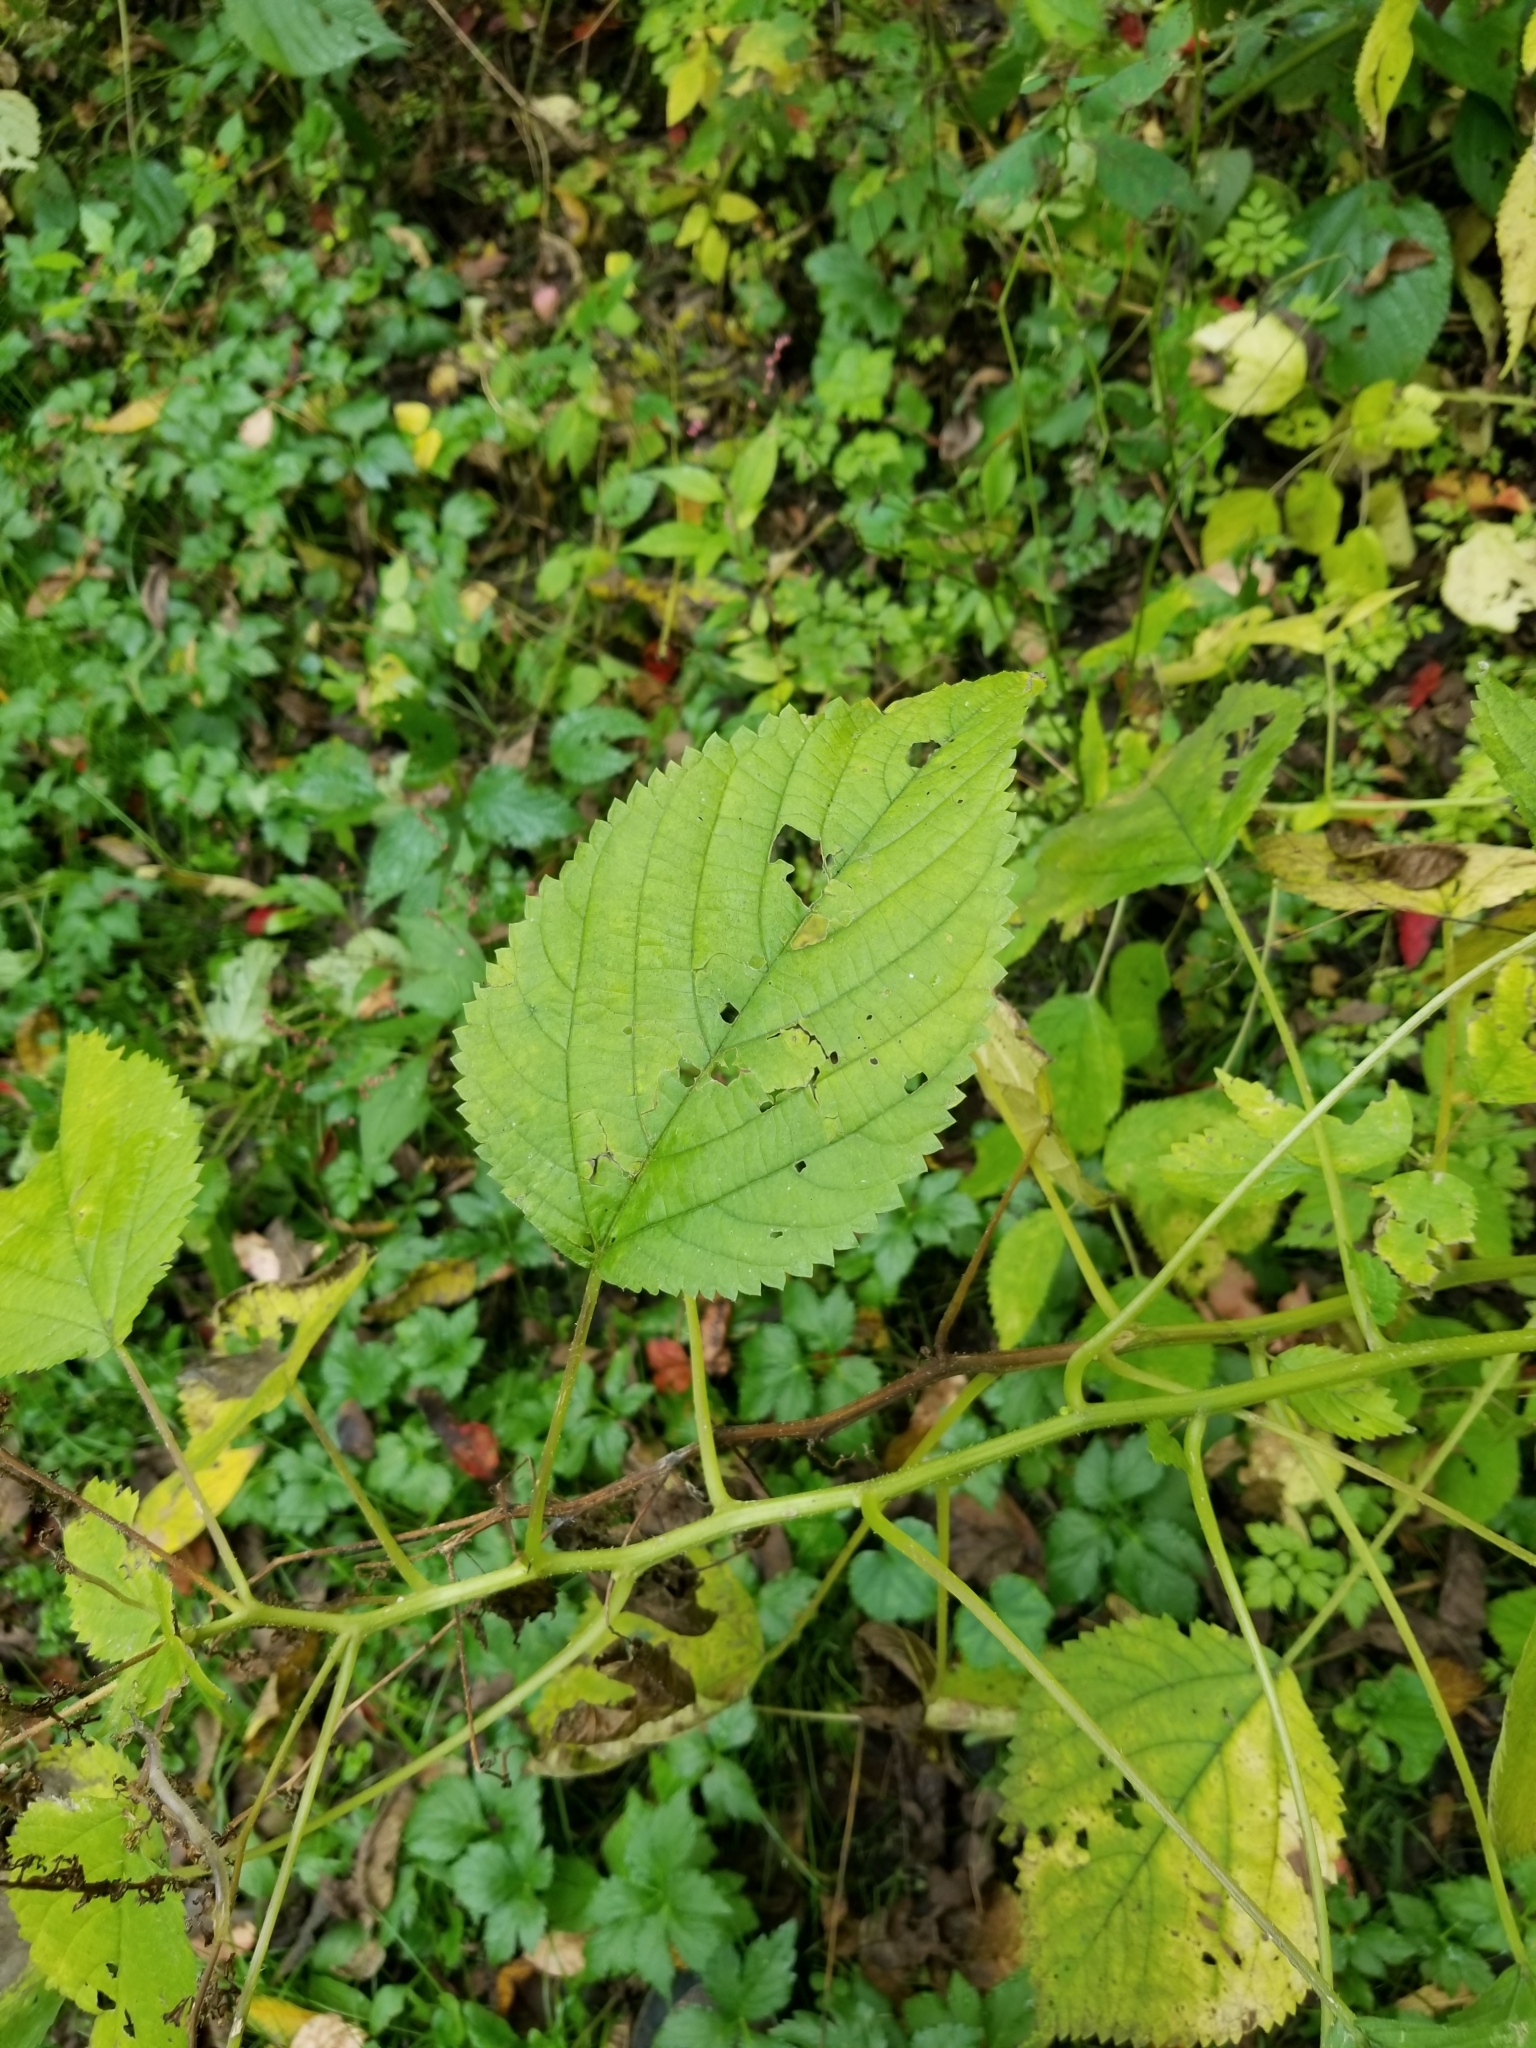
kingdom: Plantae
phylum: Tracheophyta
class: Magnoliopsida
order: Rosales
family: Urticaceae
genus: Laportea
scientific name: Laportea canadensis
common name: Canada nettle
